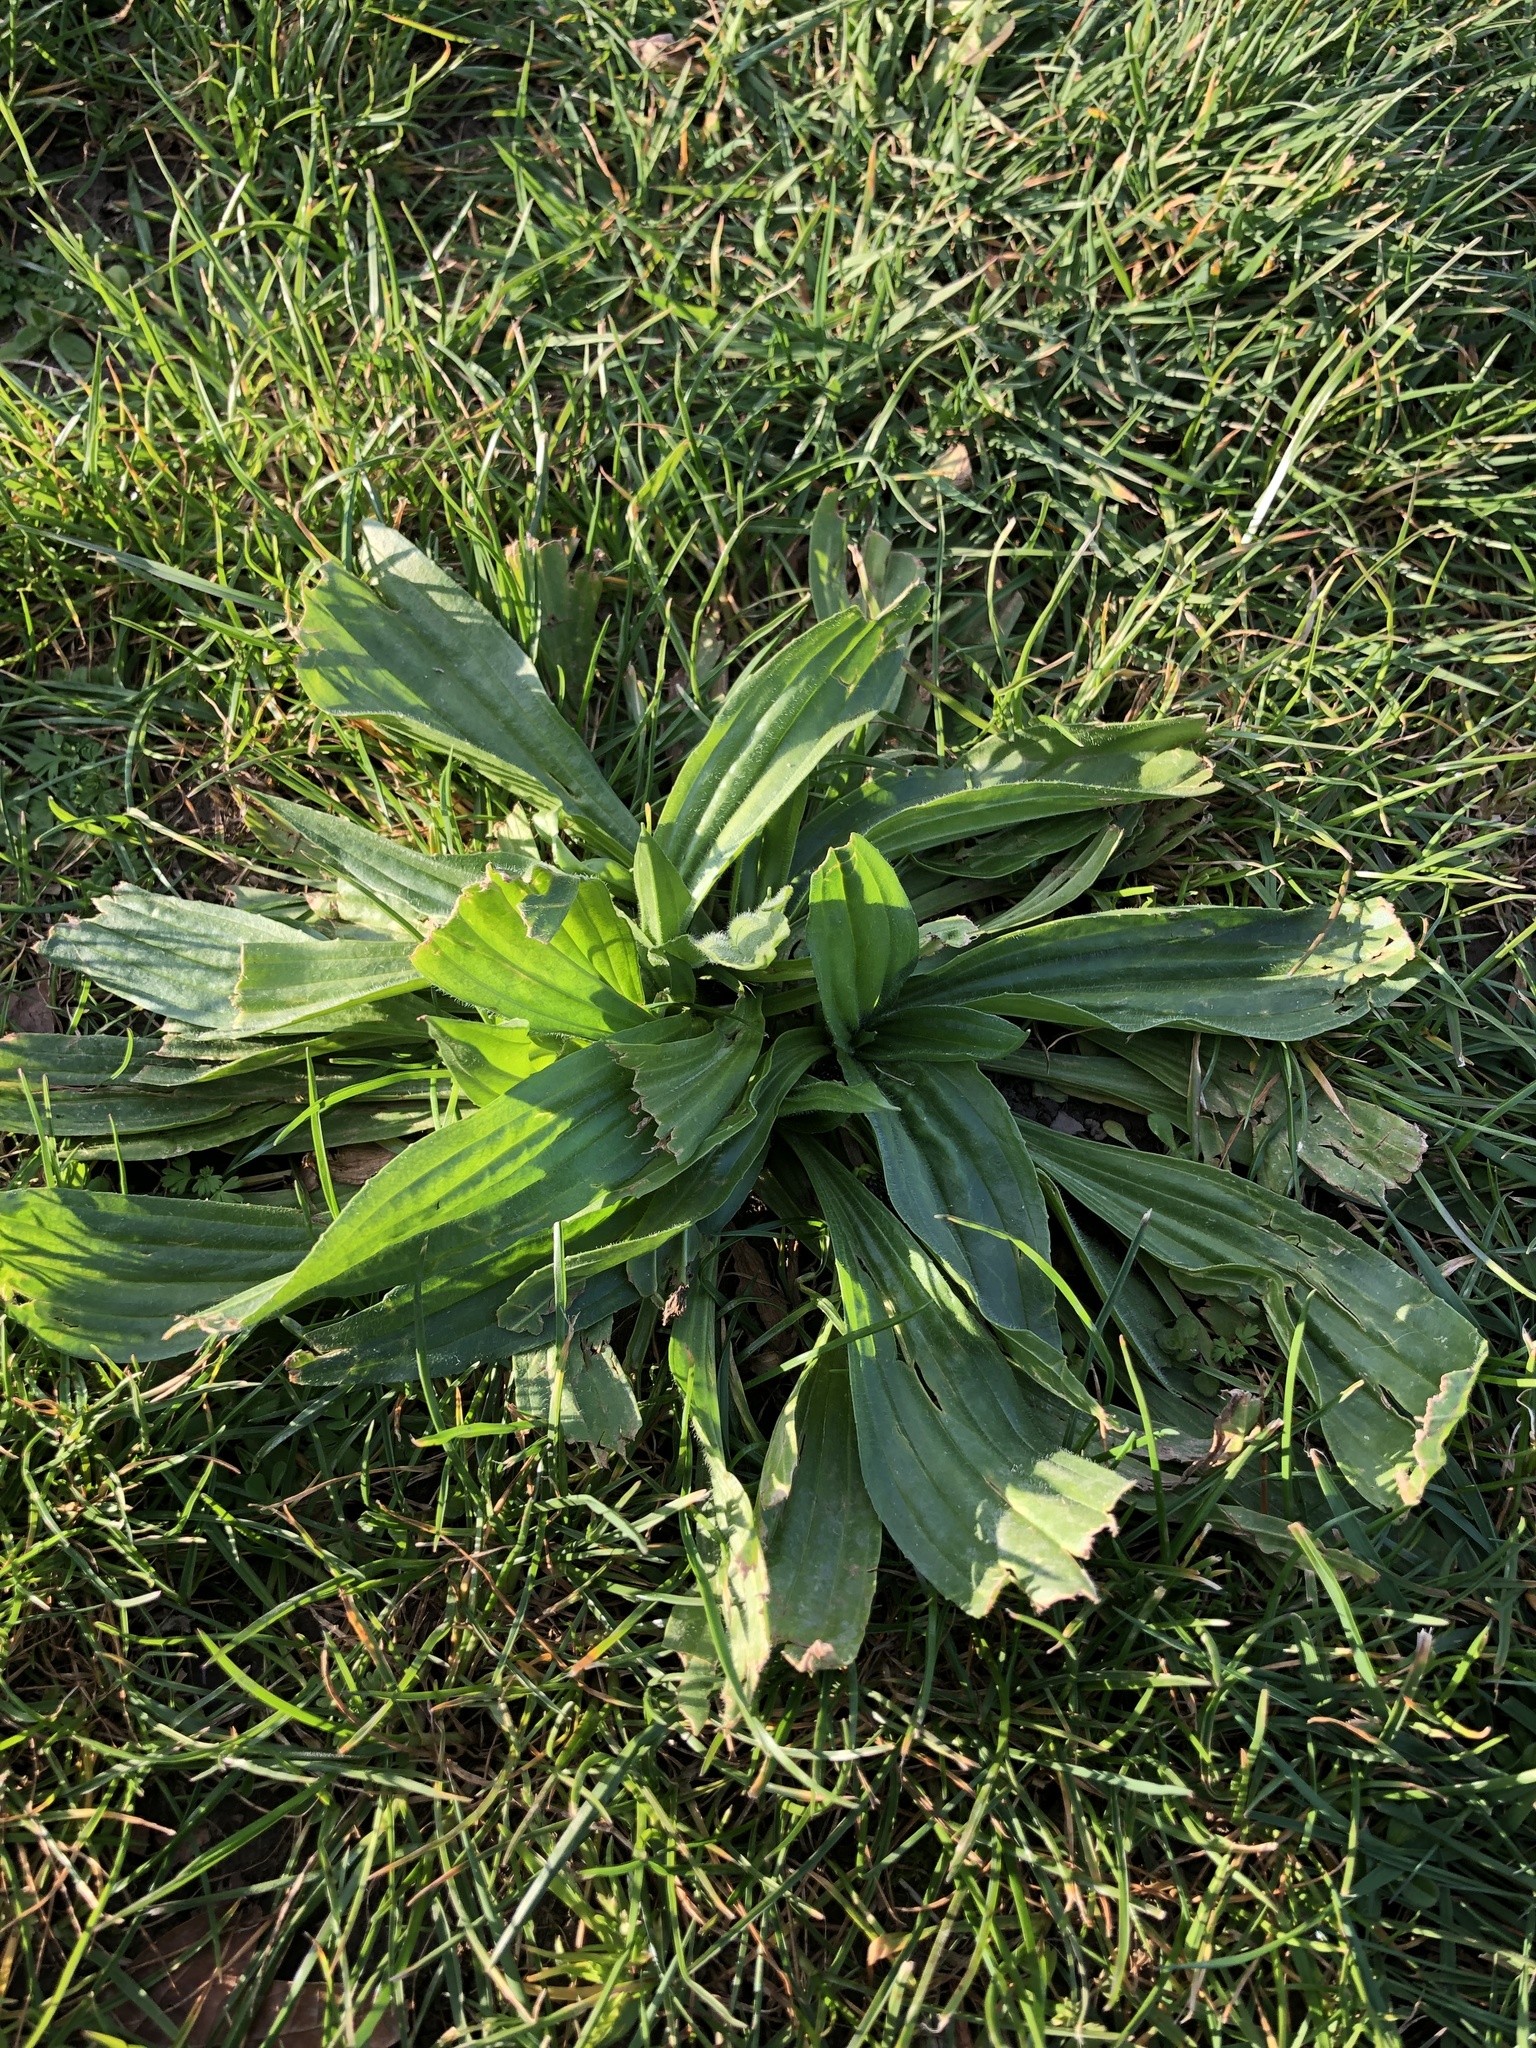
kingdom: Plantae
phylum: Tracheophyta
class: Magnoliopsida
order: Lamiales
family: Plantaginaceae
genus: Plantago
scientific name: Plantago lanceolata
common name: Ribwort plantain
